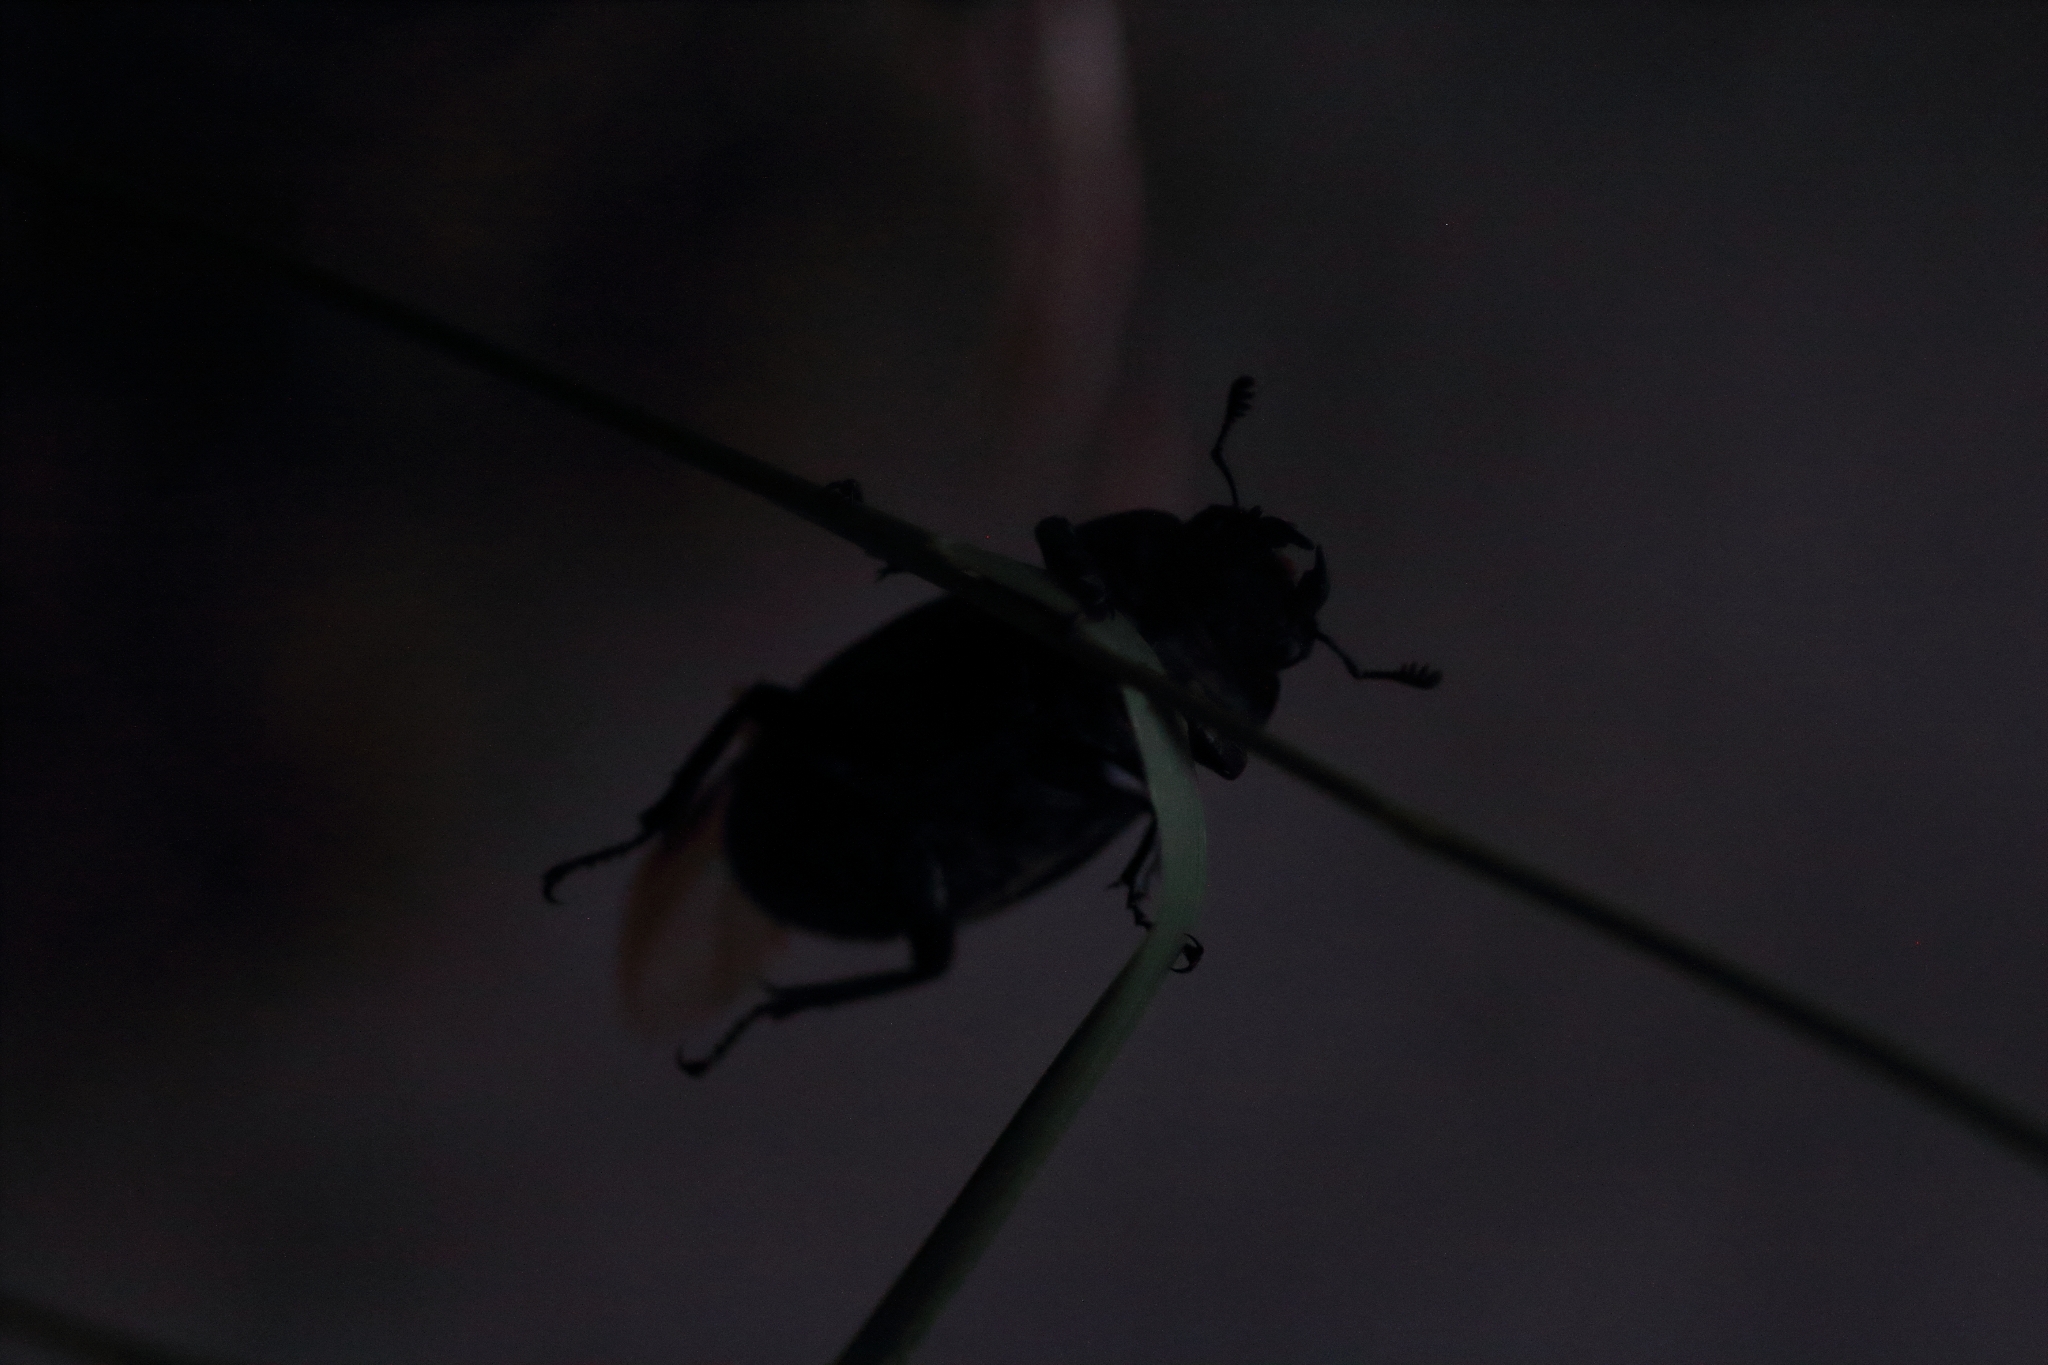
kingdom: Animalia
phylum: Arthropoda
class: Insecta
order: Coleoptera
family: Lucanidae
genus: Lucanus
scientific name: Lucanus cervus
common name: Stag beetle
